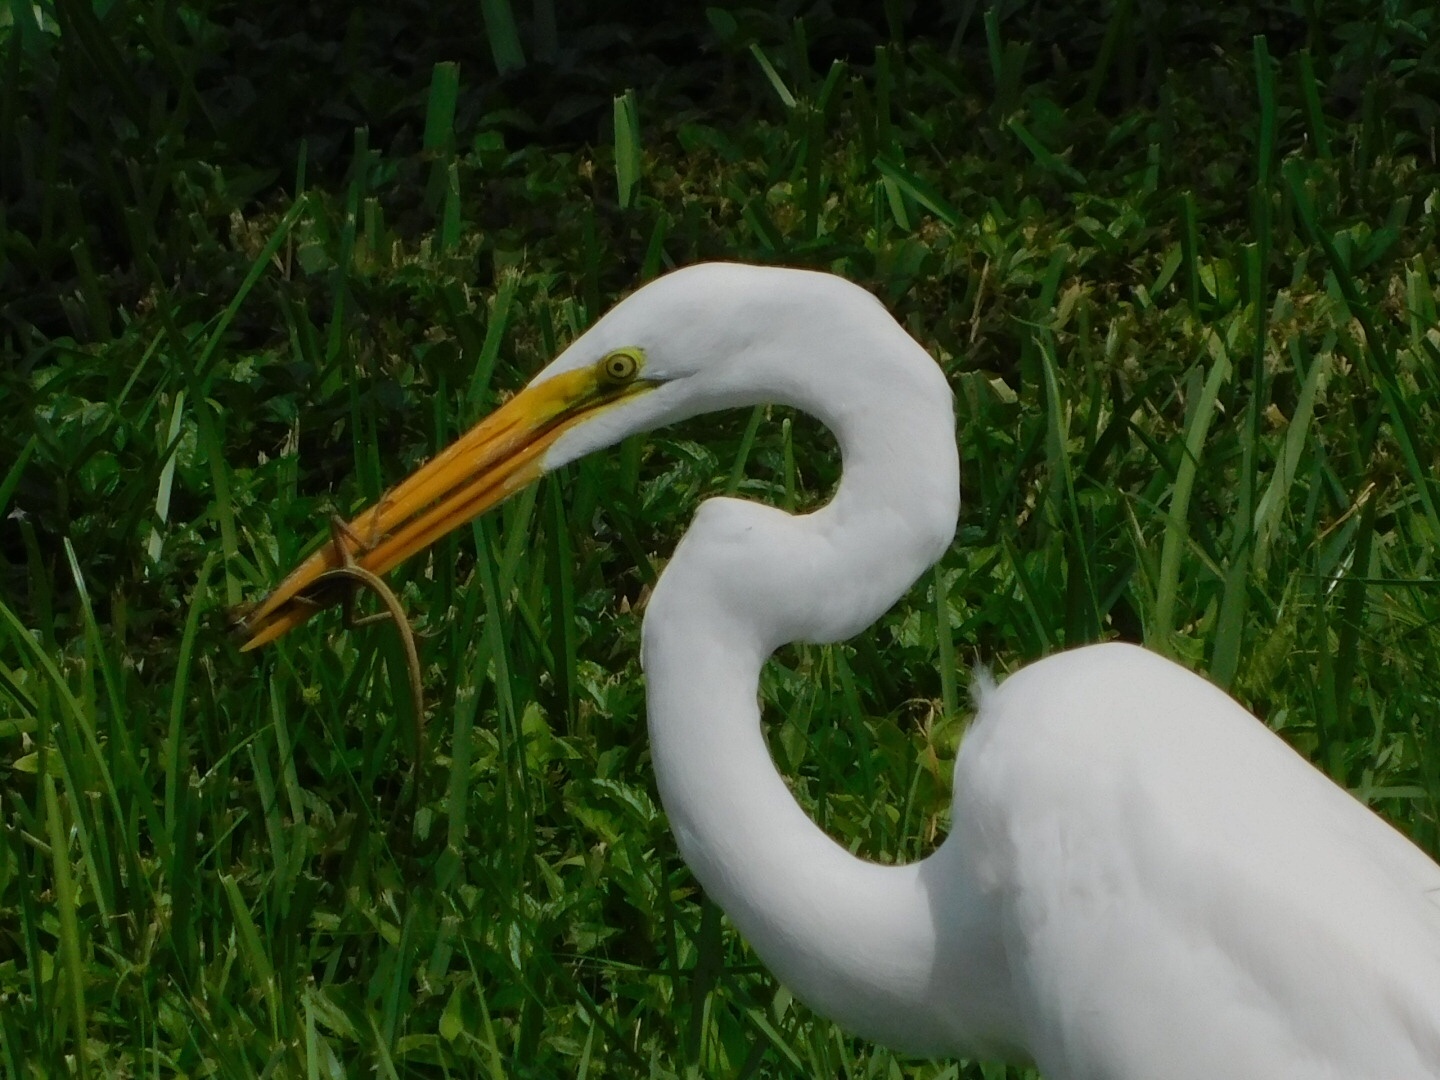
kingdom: Animalia
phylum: Chordata
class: Aves
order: Pelecaniformes
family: Ardeidae
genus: Ardea
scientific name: Ardea alba
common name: Great egret
